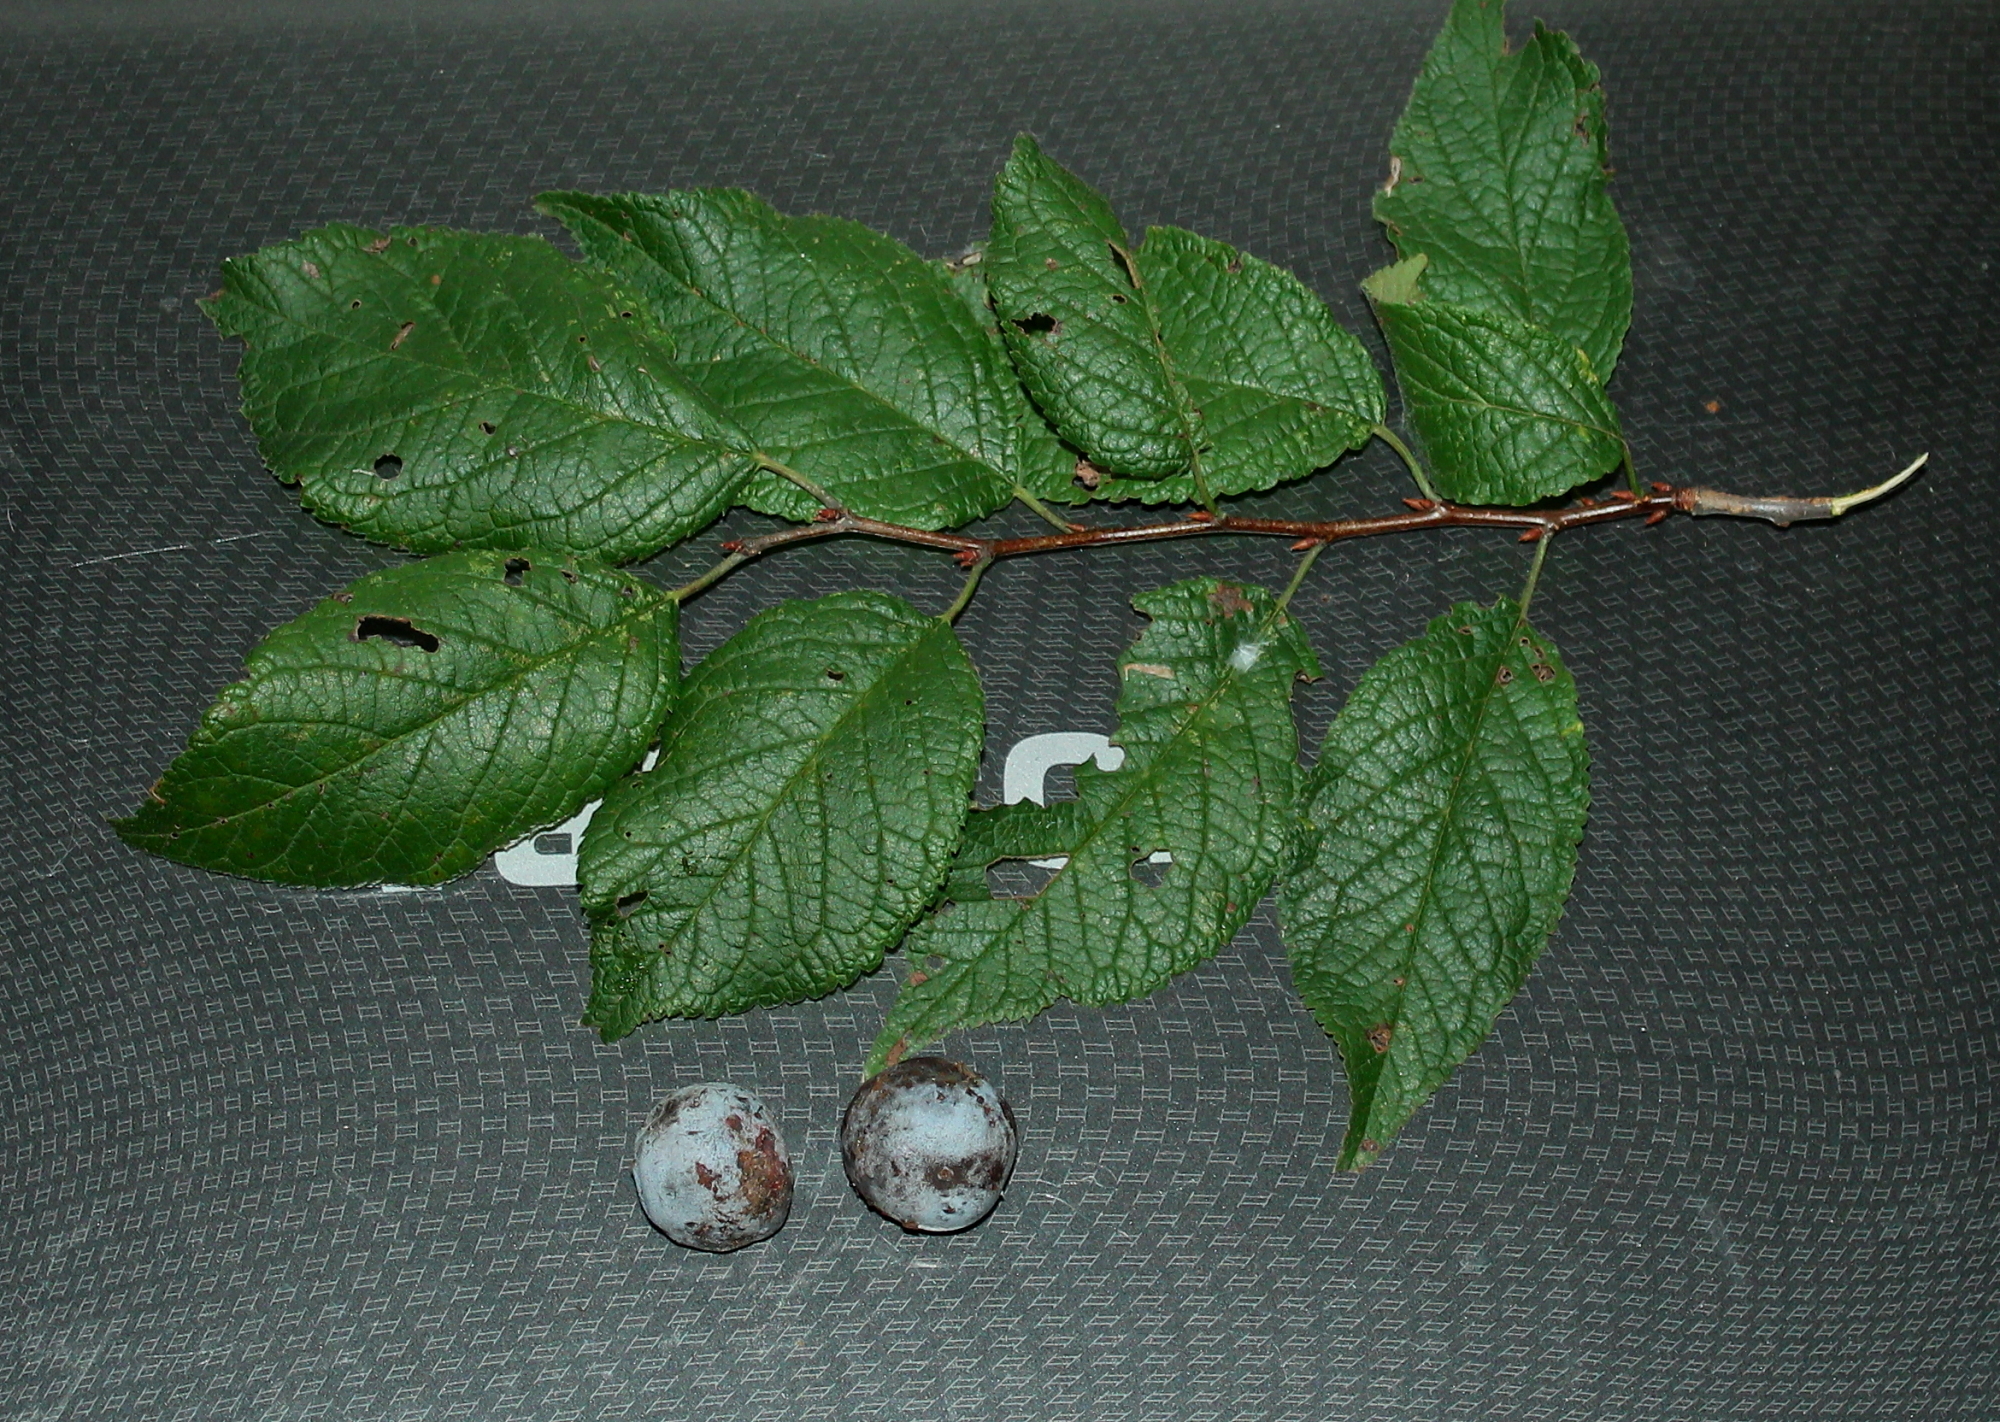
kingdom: Plantae
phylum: Tracheophyta
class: Magnoliopsida
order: Rosales
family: Rosaceae
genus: Prunus
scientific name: Prunus mexicana
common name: Mexican plum
